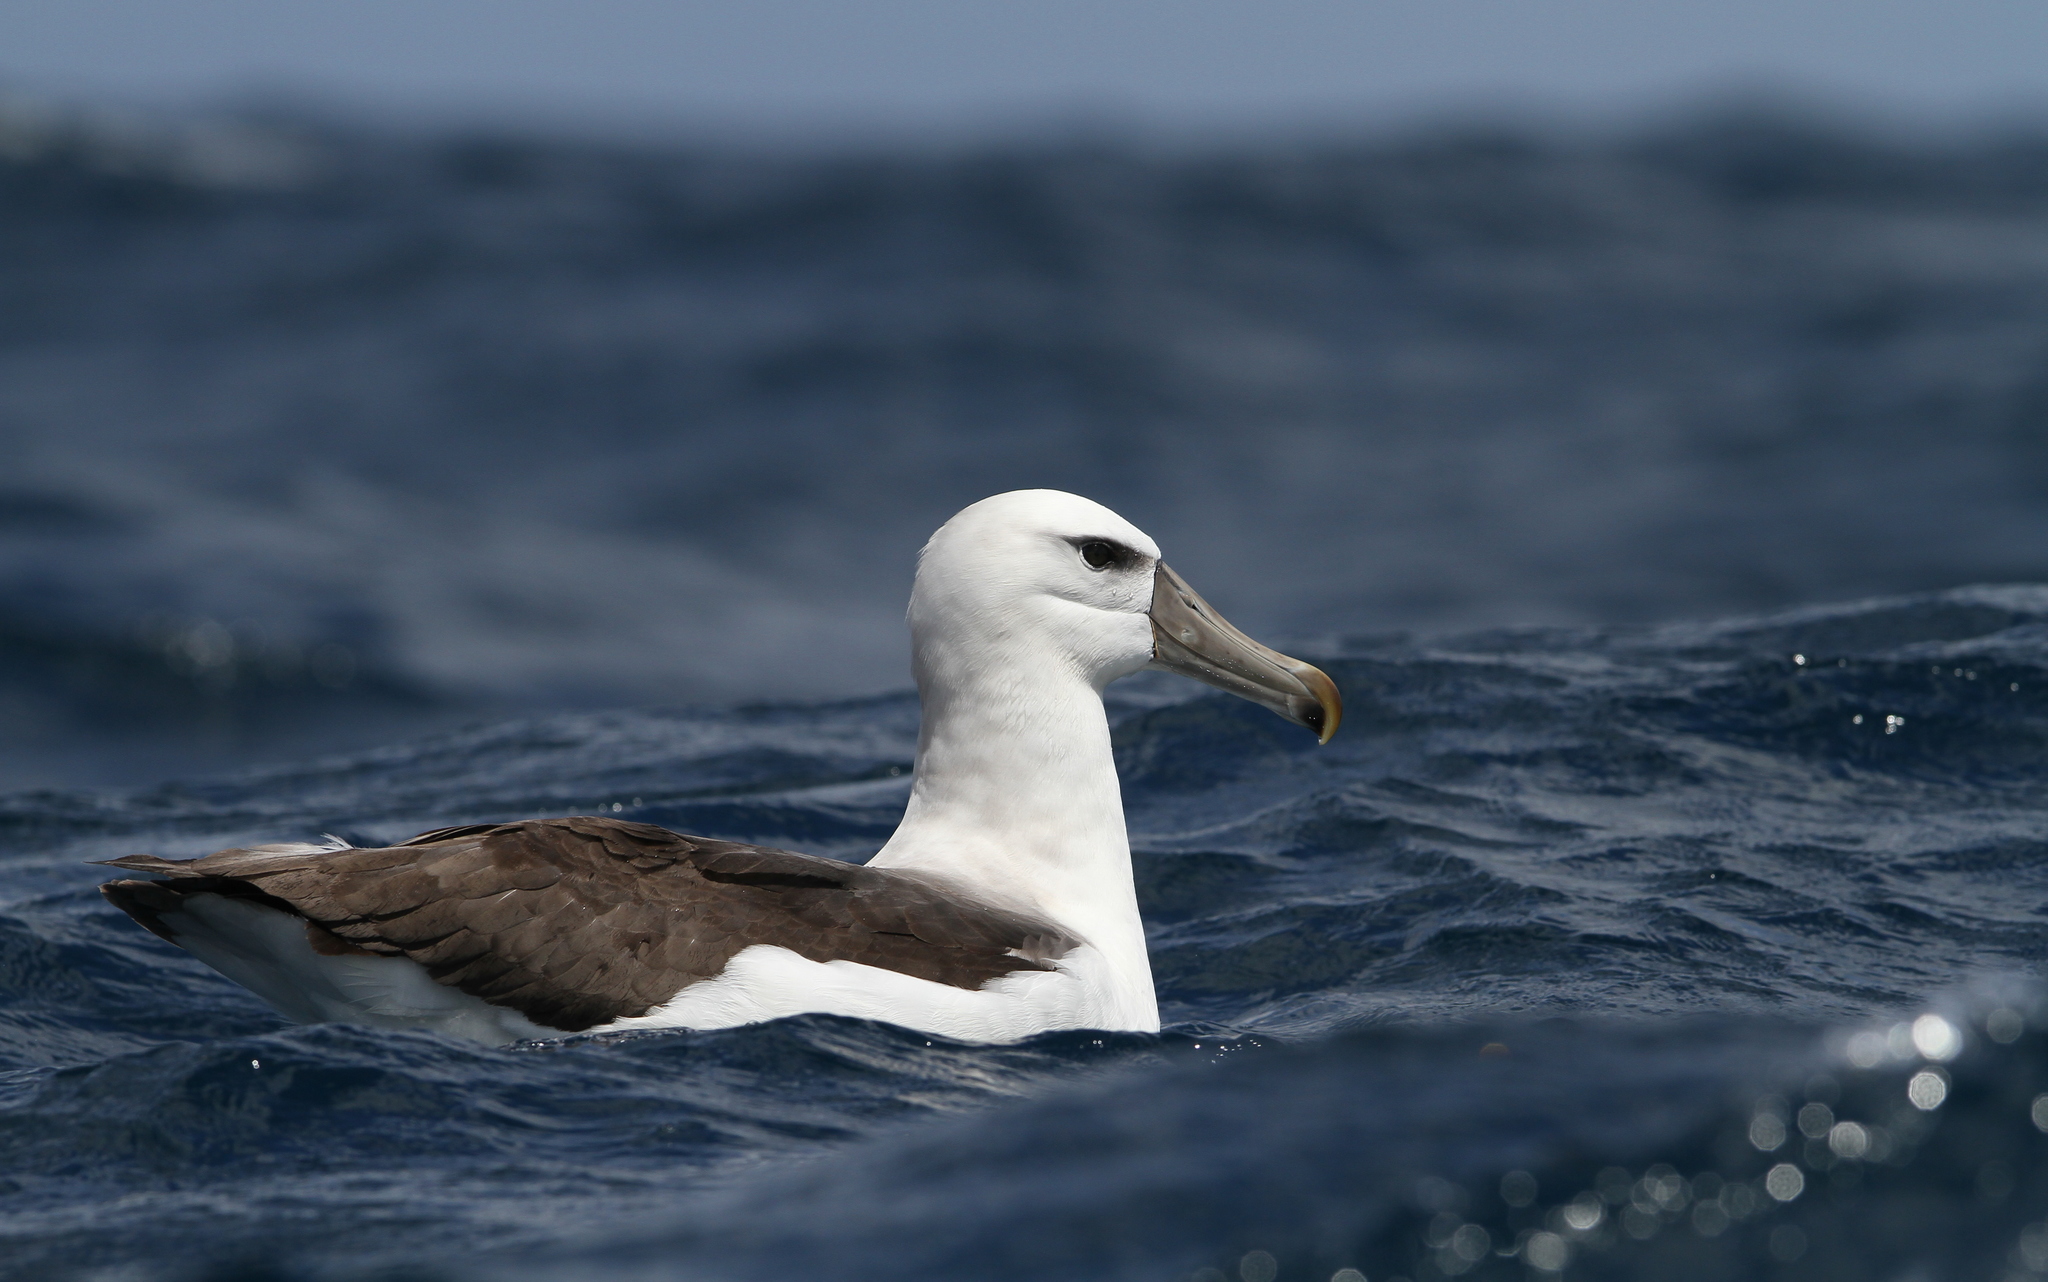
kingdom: Animalia
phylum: Chordata
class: Aves
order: Procellariiformes
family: Diomedeidae
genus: Thalassarche
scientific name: Thalassarche cauta
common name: Shy albatross
